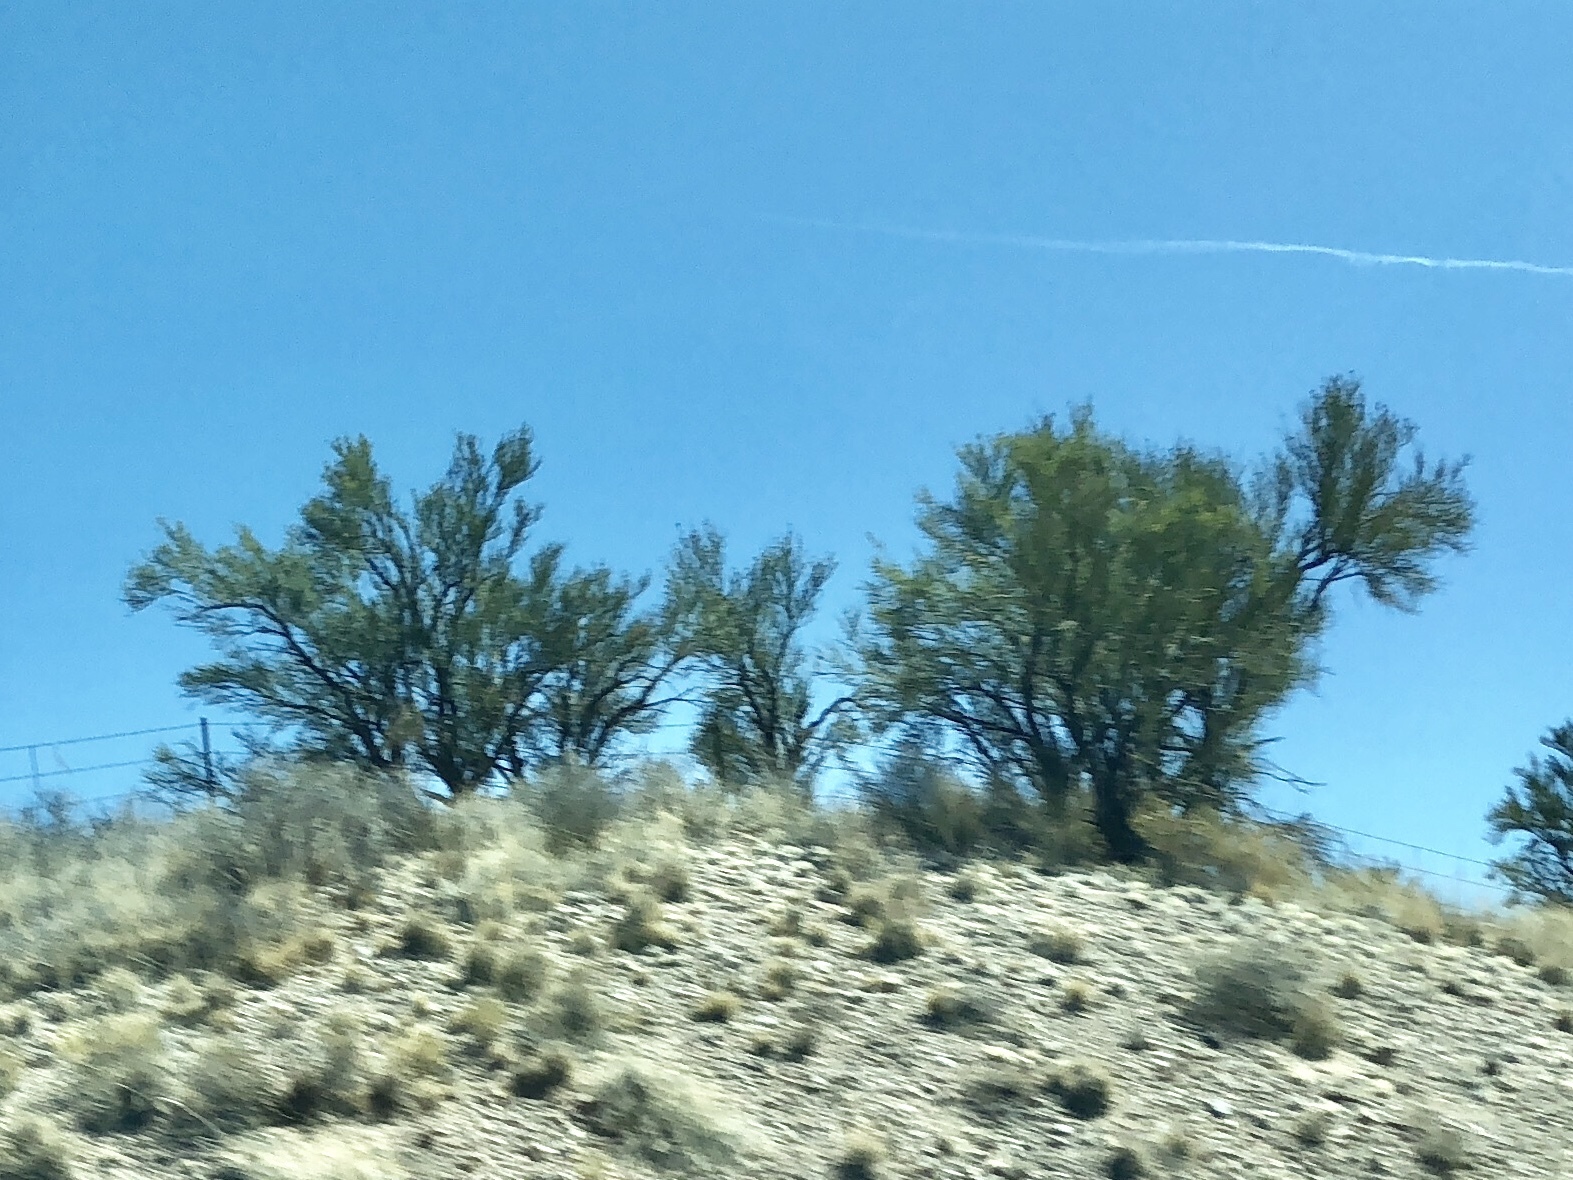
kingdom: Plantae
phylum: Tracheophyta
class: Magnoliopsida
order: Celastrales
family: Celastraceae
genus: Canotia
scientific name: Canotia holacantha
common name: Crucifixion thorns
